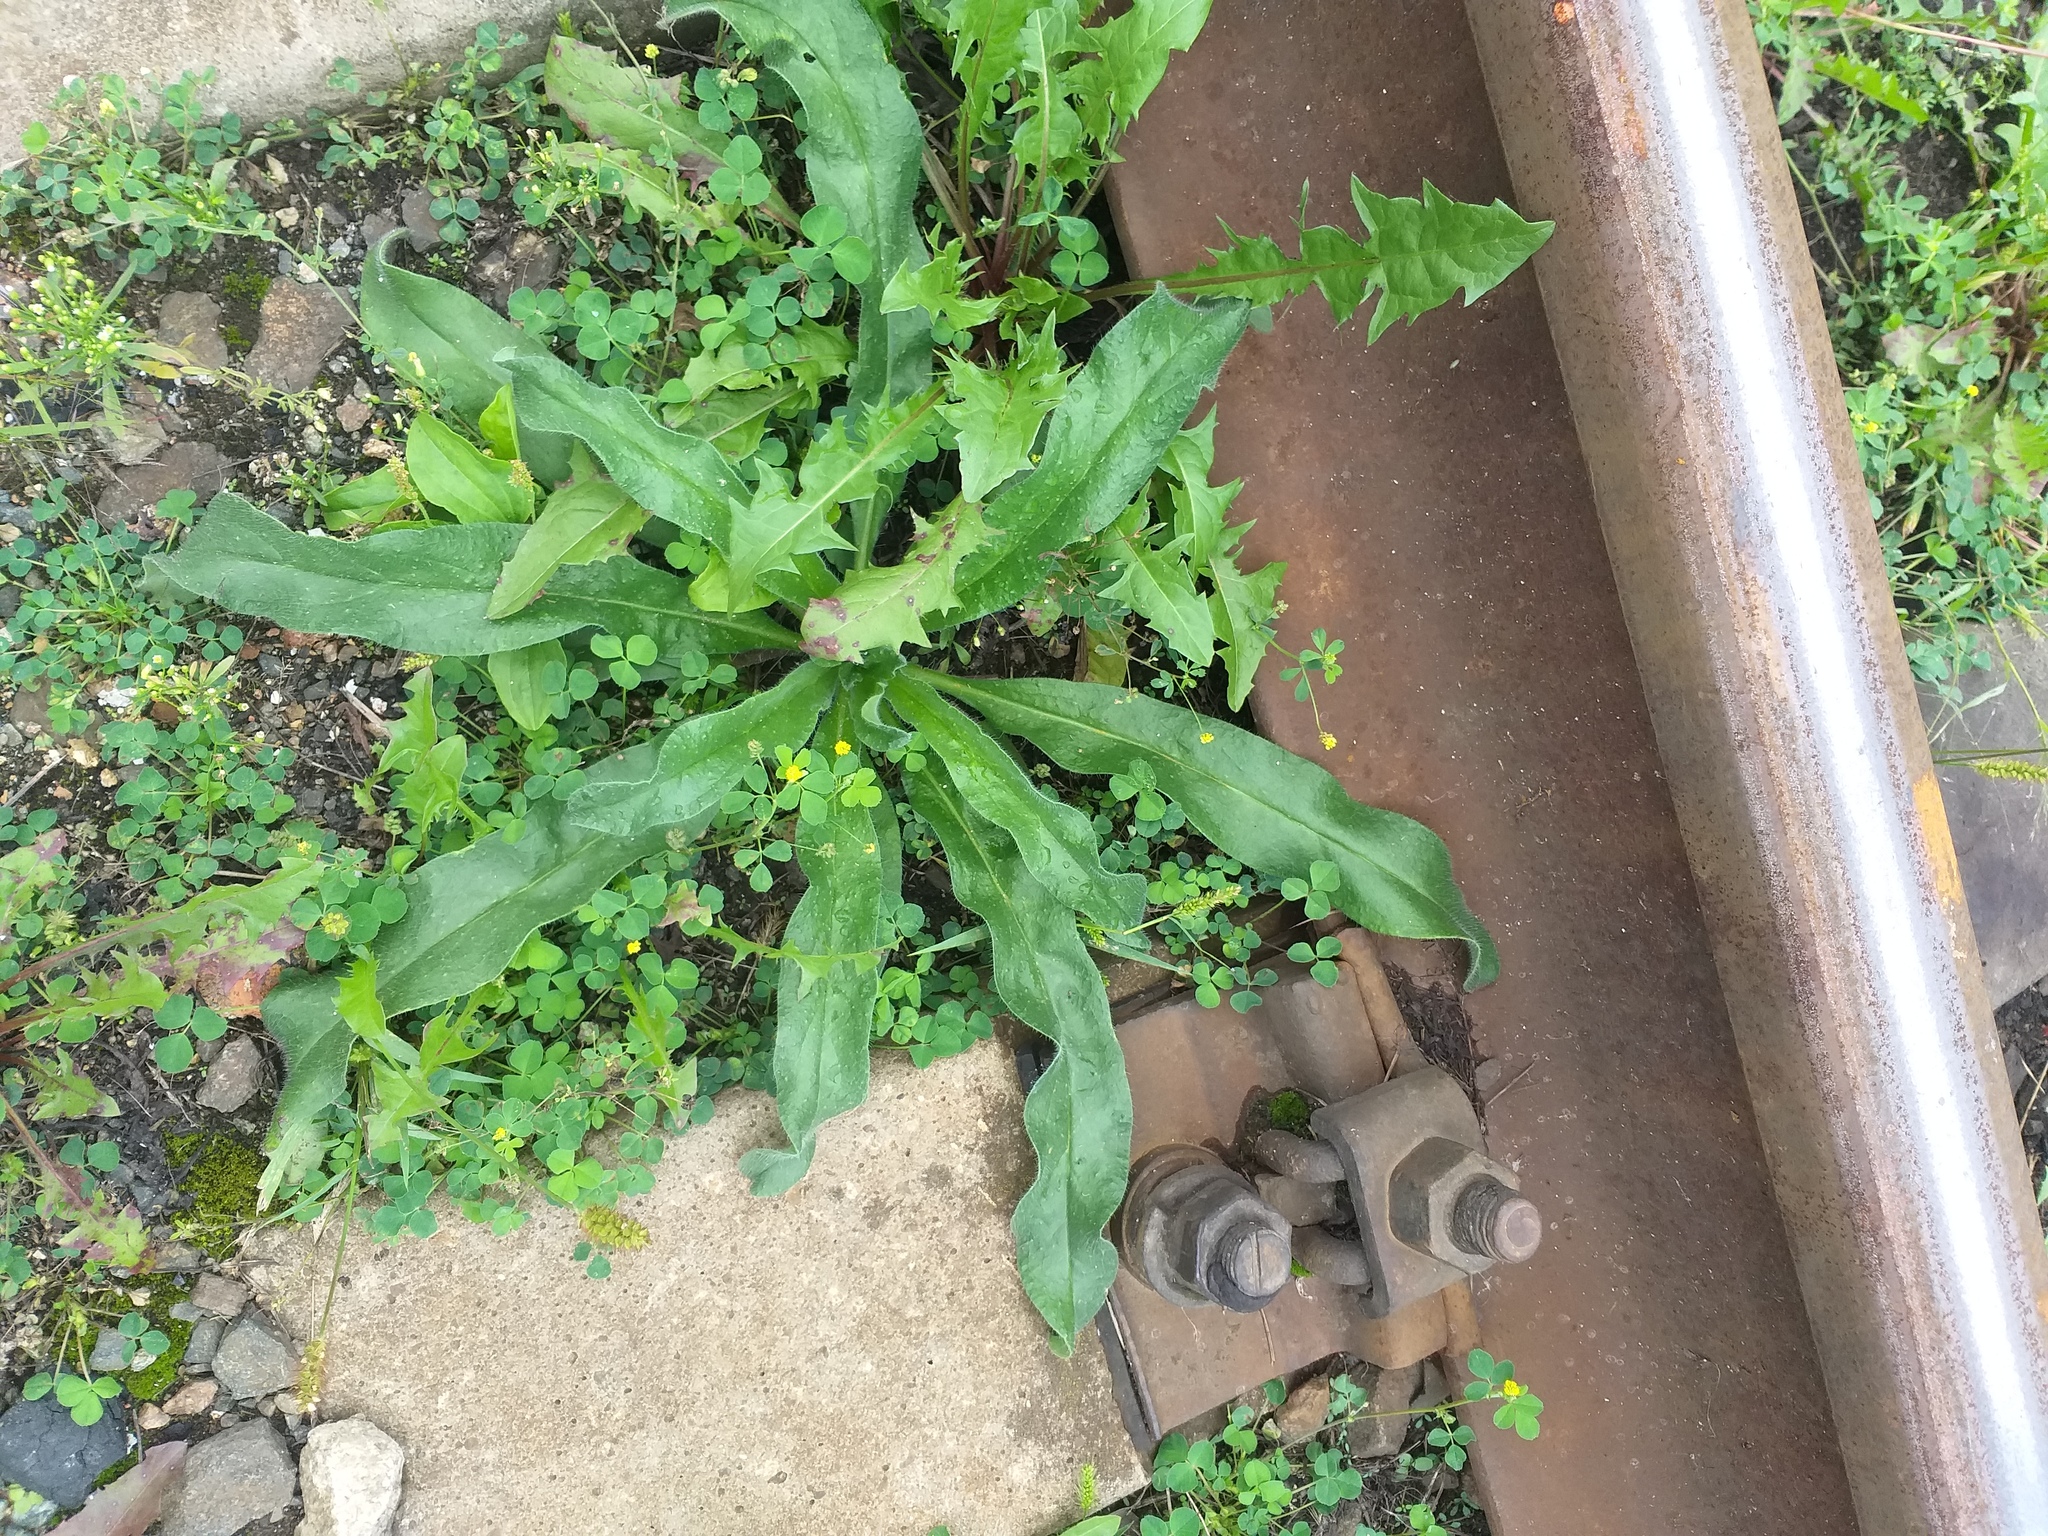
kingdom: Plantae
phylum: Tracheophyta
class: Magnoliopsida
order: Boraginales
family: Boraginaceae
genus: Echium
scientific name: Echium vulgare
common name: Common viper's bugloss
